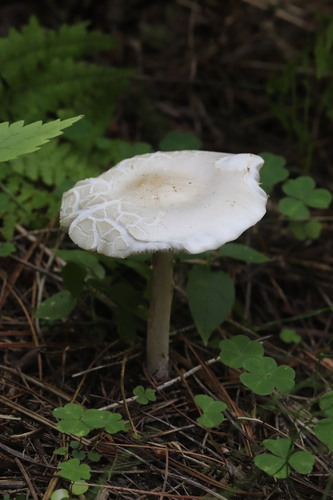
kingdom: Fungi
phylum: Basidiomycota
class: Agaricomycetes
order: Agaricales
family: Tricholomataceae
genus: Melanoleuca
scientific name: Melanoleuca strictipes
